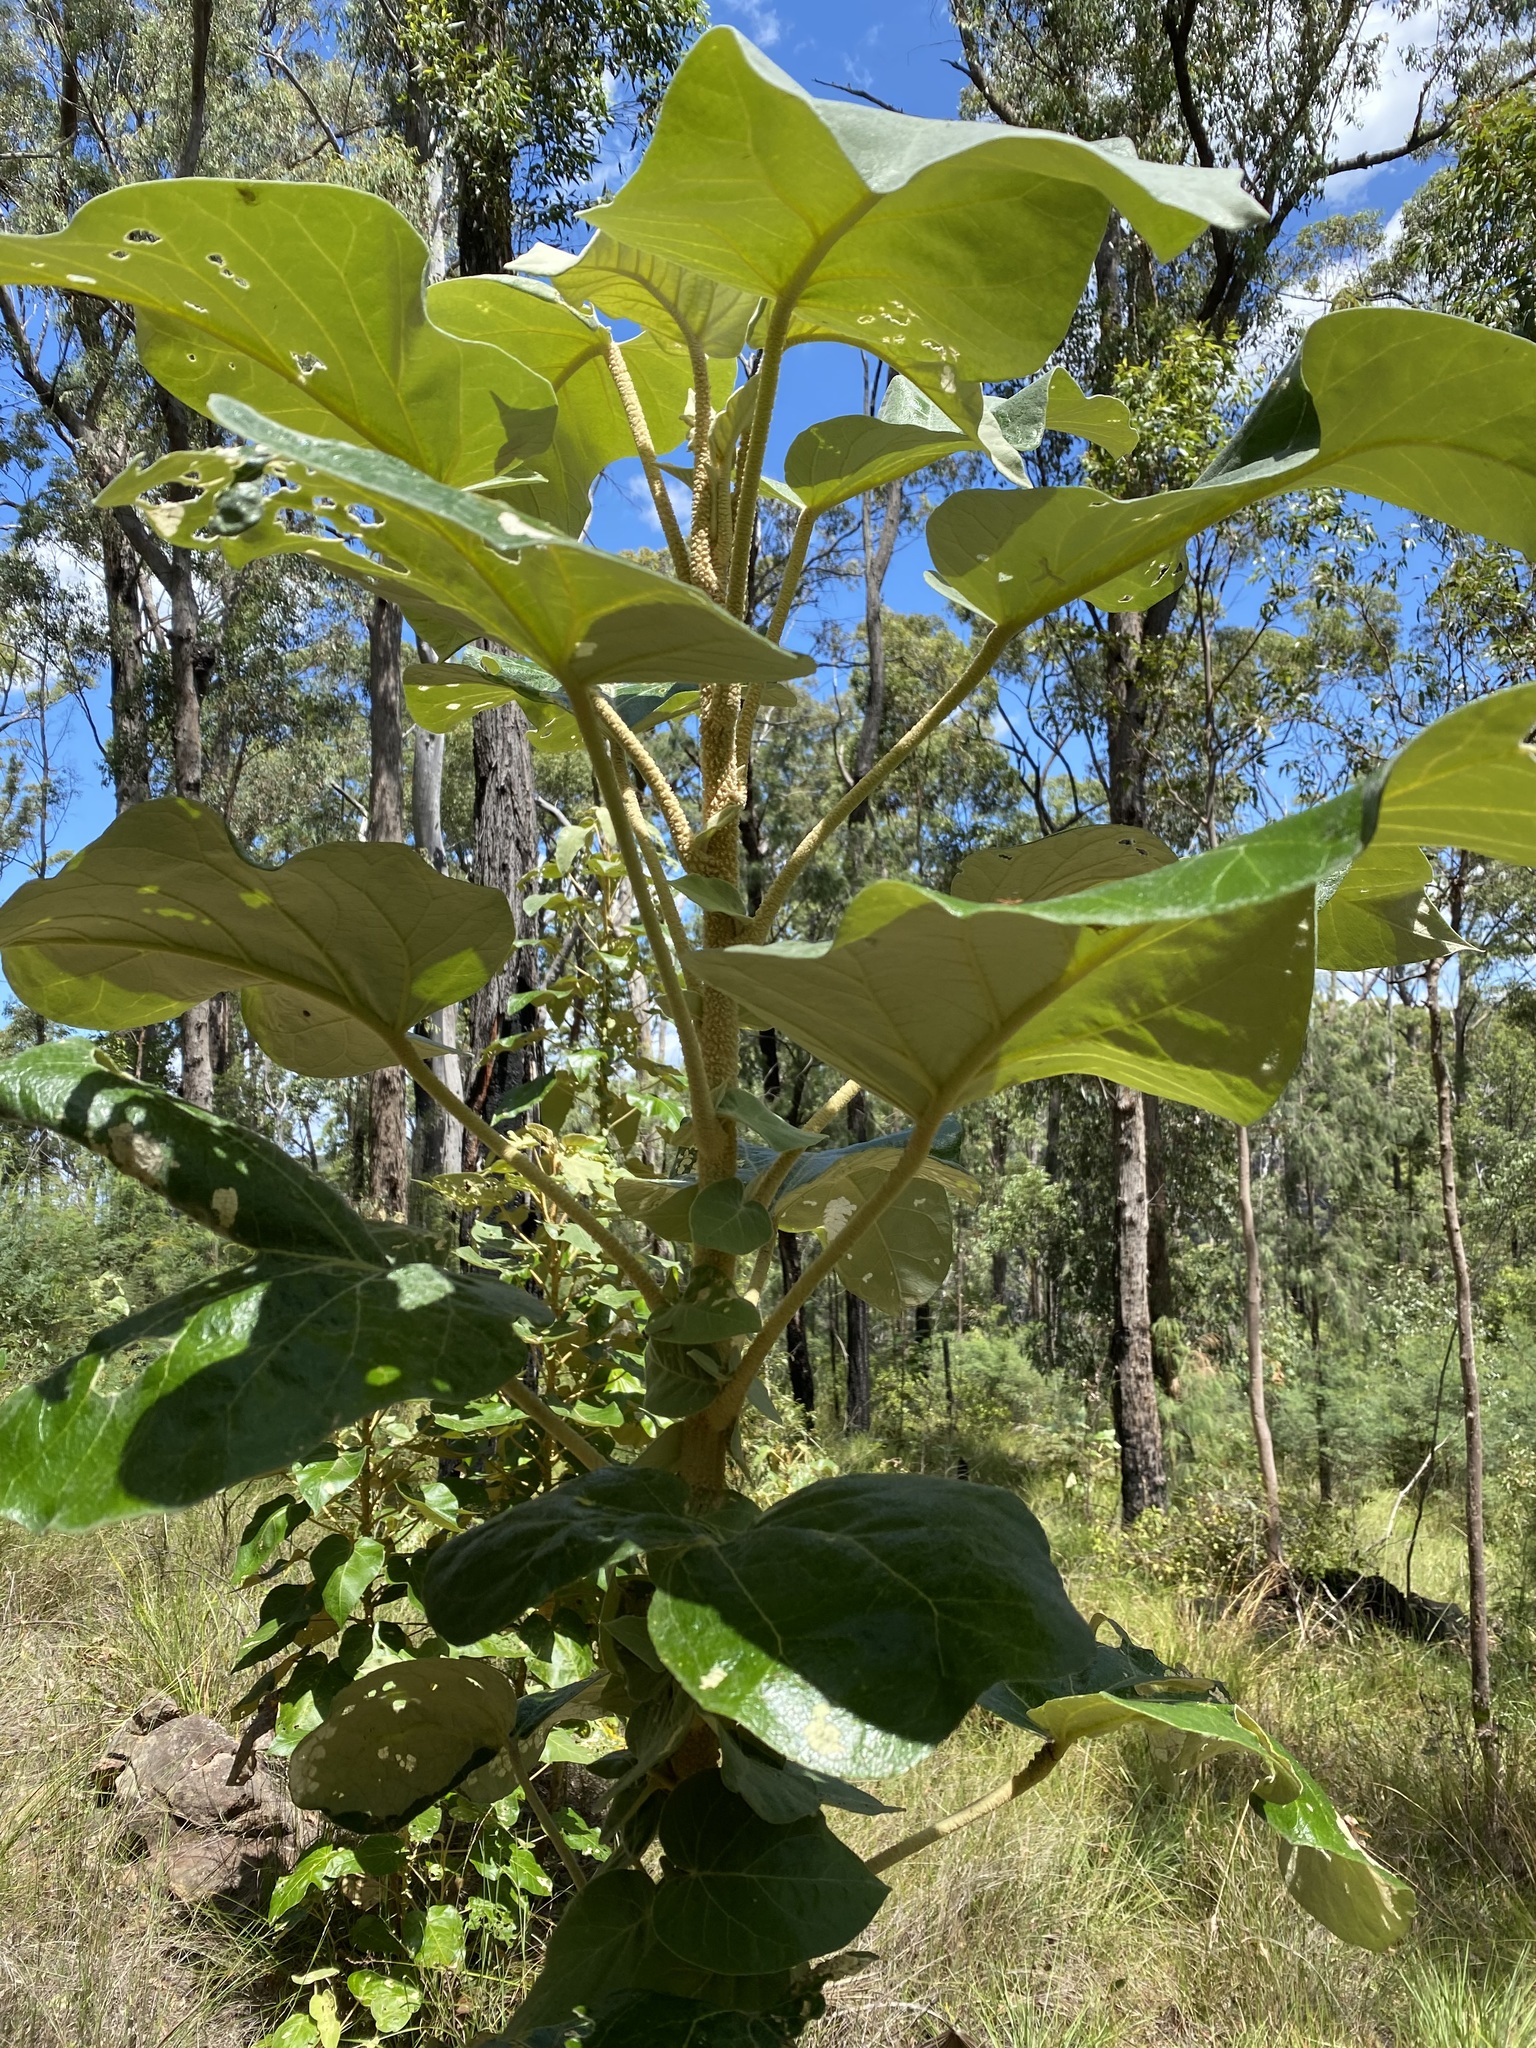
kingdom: Plantae
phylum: Tracheophyta
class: Magnoliopsida
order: Apiales
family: Araliaceae
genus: Astrotricha
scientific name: Astrotricha cordata
